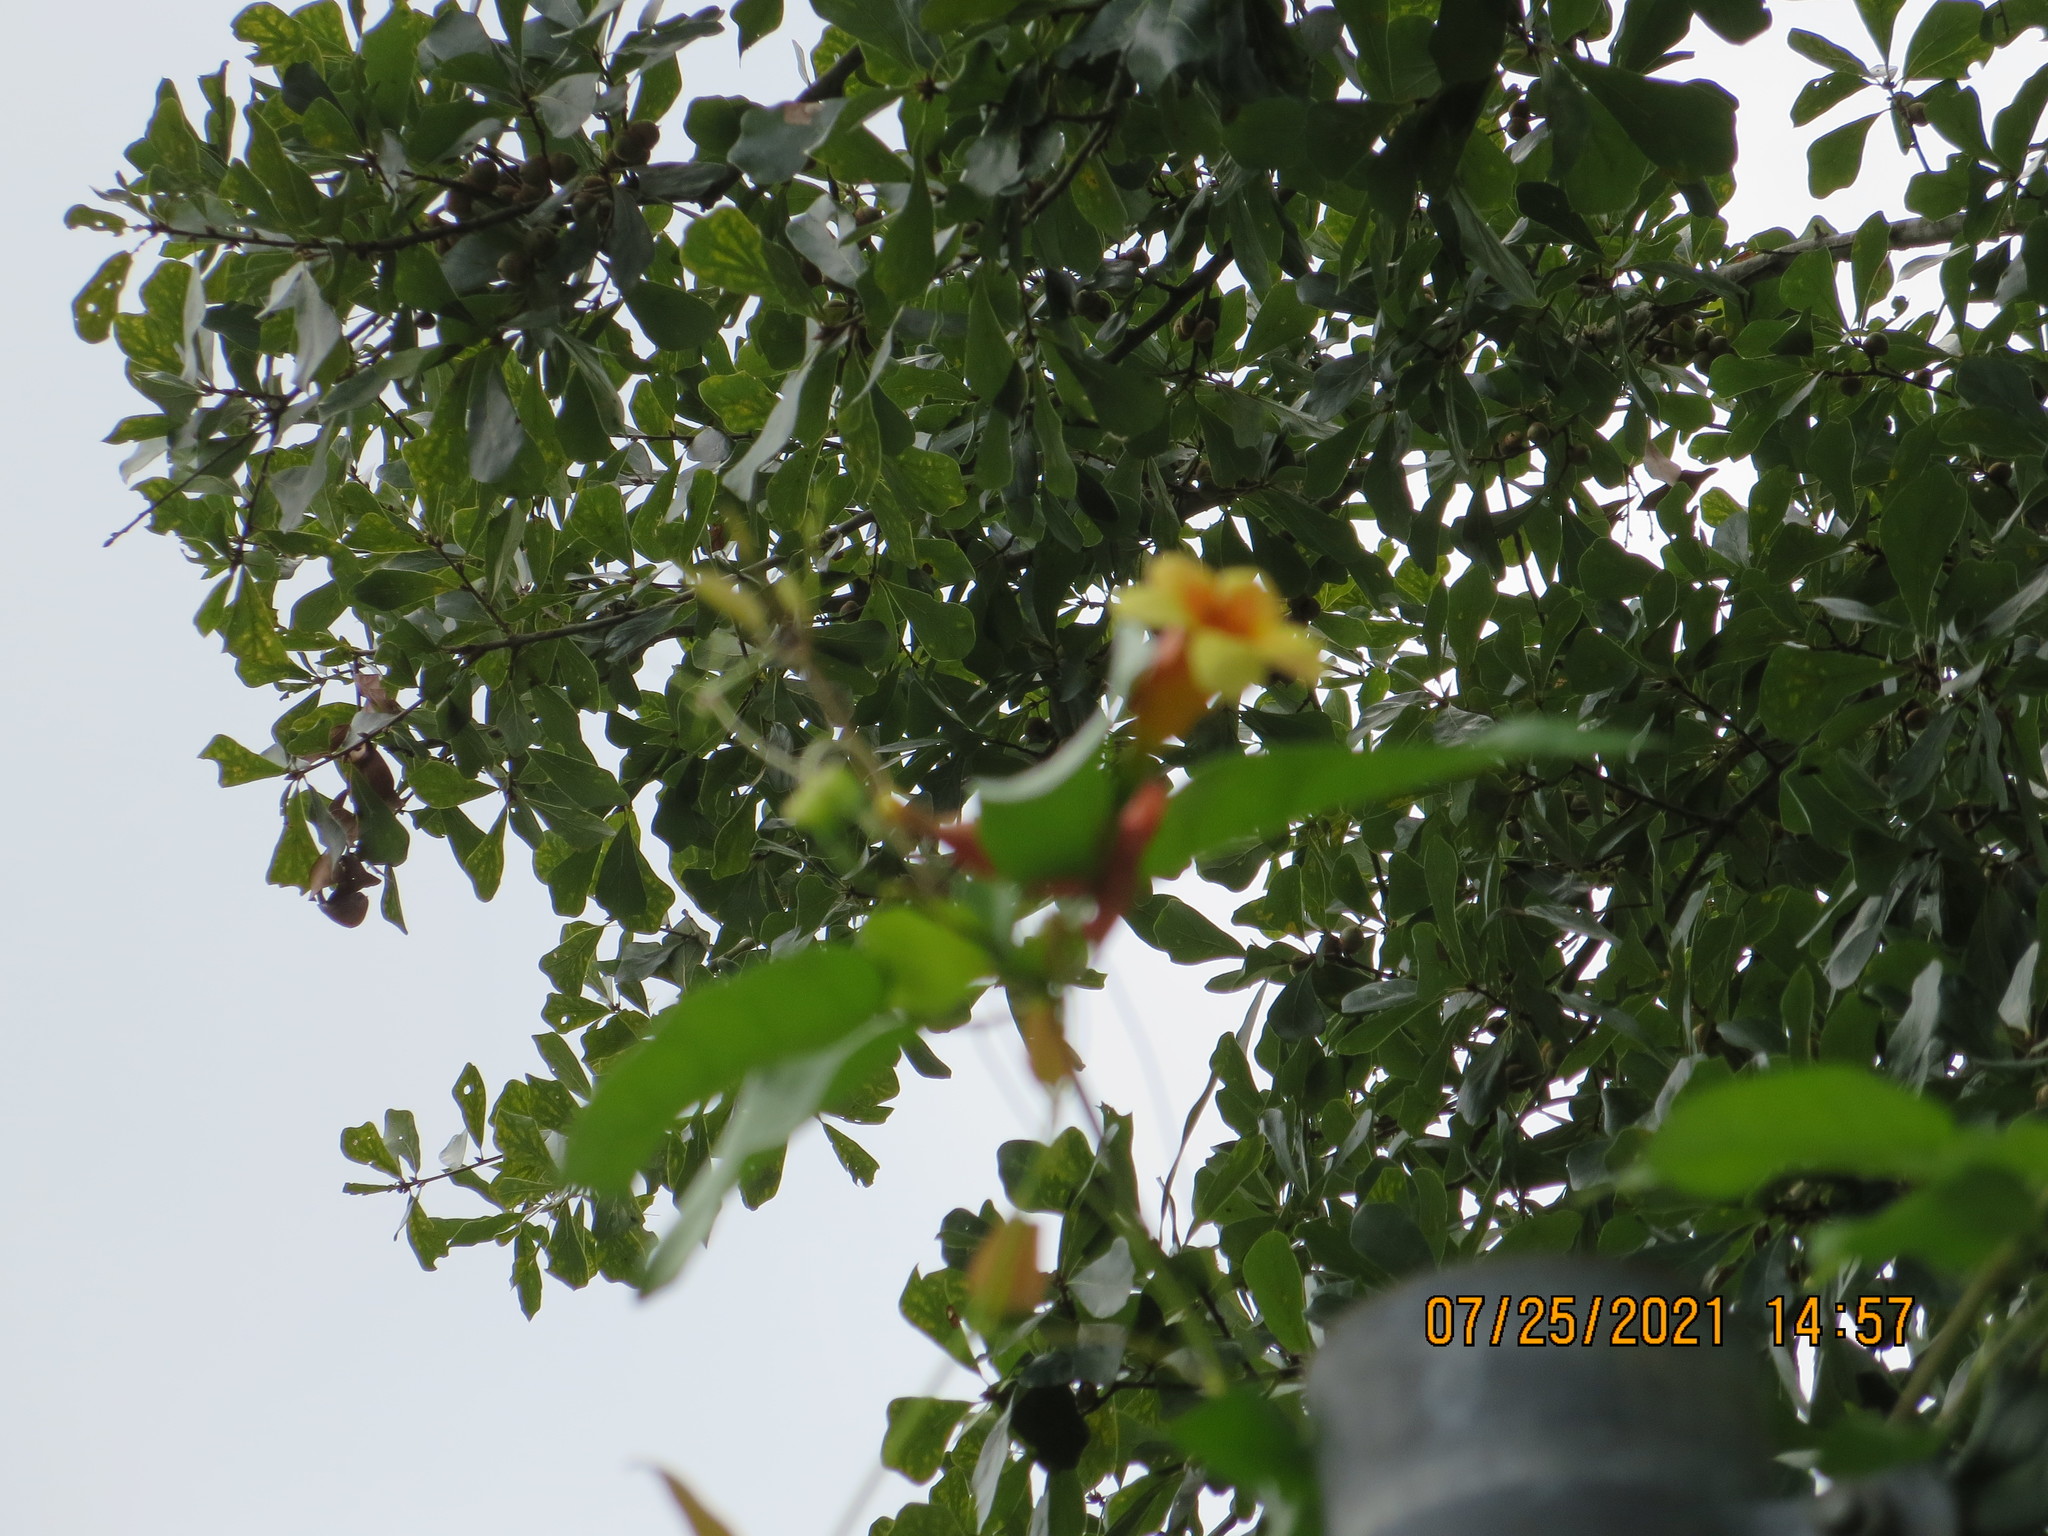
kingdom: Plantae
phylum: Tracheophyta
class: Magnoliopsida
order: Lamiales
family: Bignoniaceae
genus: Bignonia
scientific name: Bignonia capreolata
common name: Crossvine
